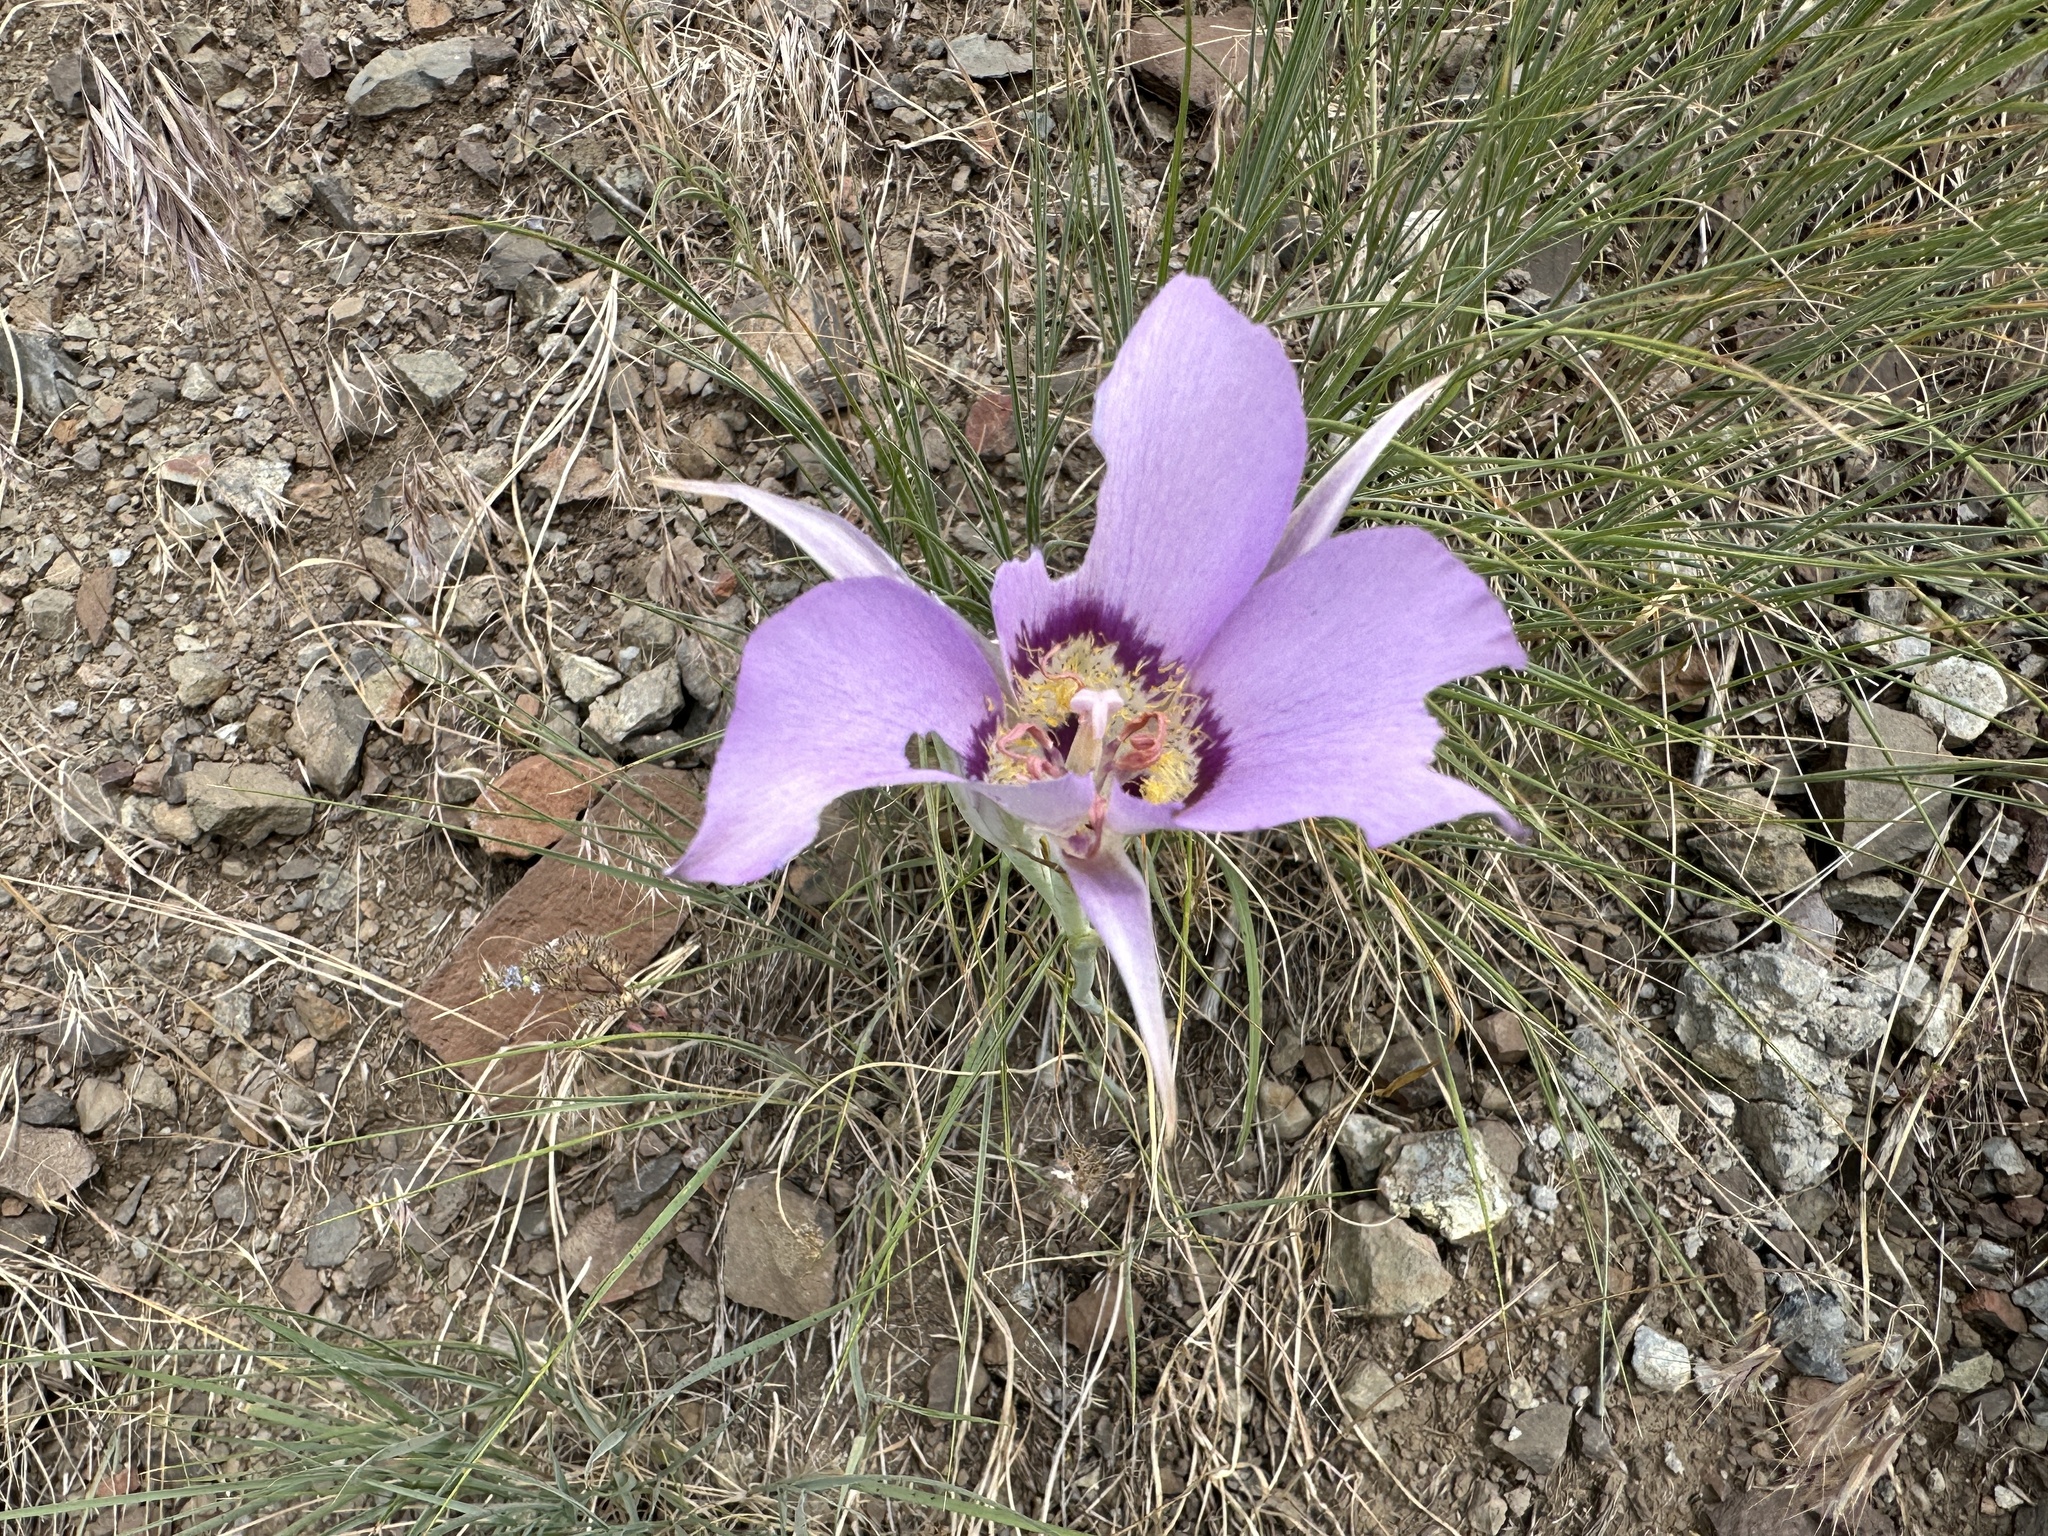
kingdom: Plantae
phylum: Tracheophyta
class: Liliopsida
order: Liliales
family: Liliaceae
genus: Calochortus
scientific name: Calochortus macrocarpus
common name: Green-band mariposa lily
